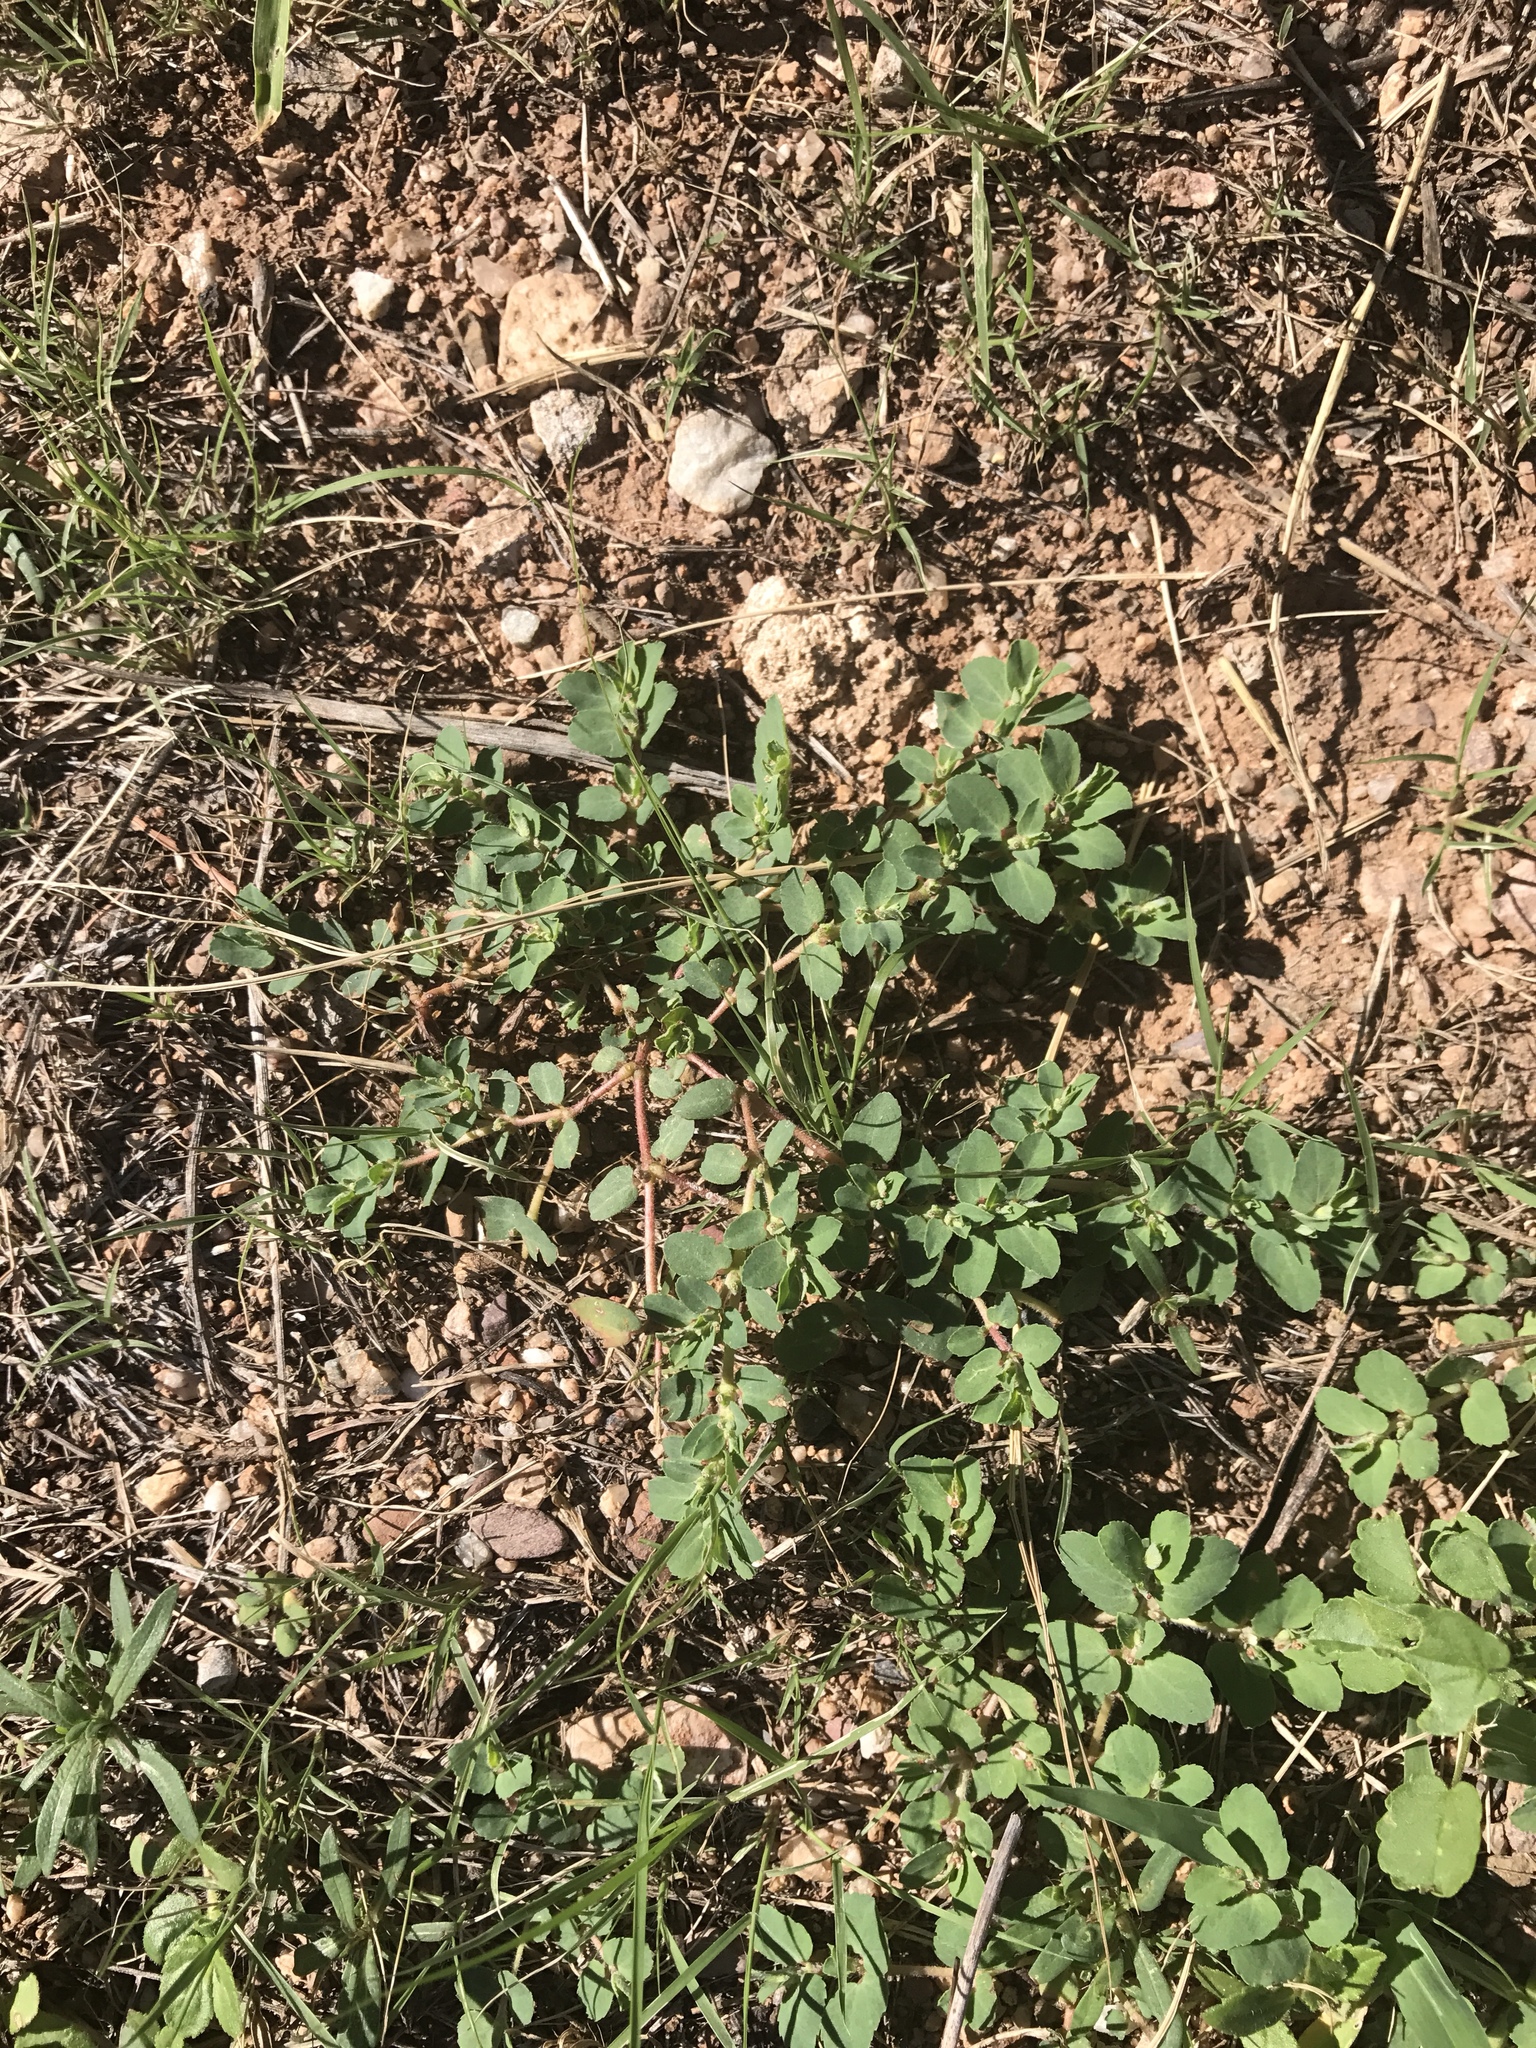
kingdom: Plantae
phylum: Tracheophyta
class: Magnoliopsida
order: Malpighiales
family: Euphorbiaceae
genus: Euphorbia
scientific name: Euphorbia stictospora
